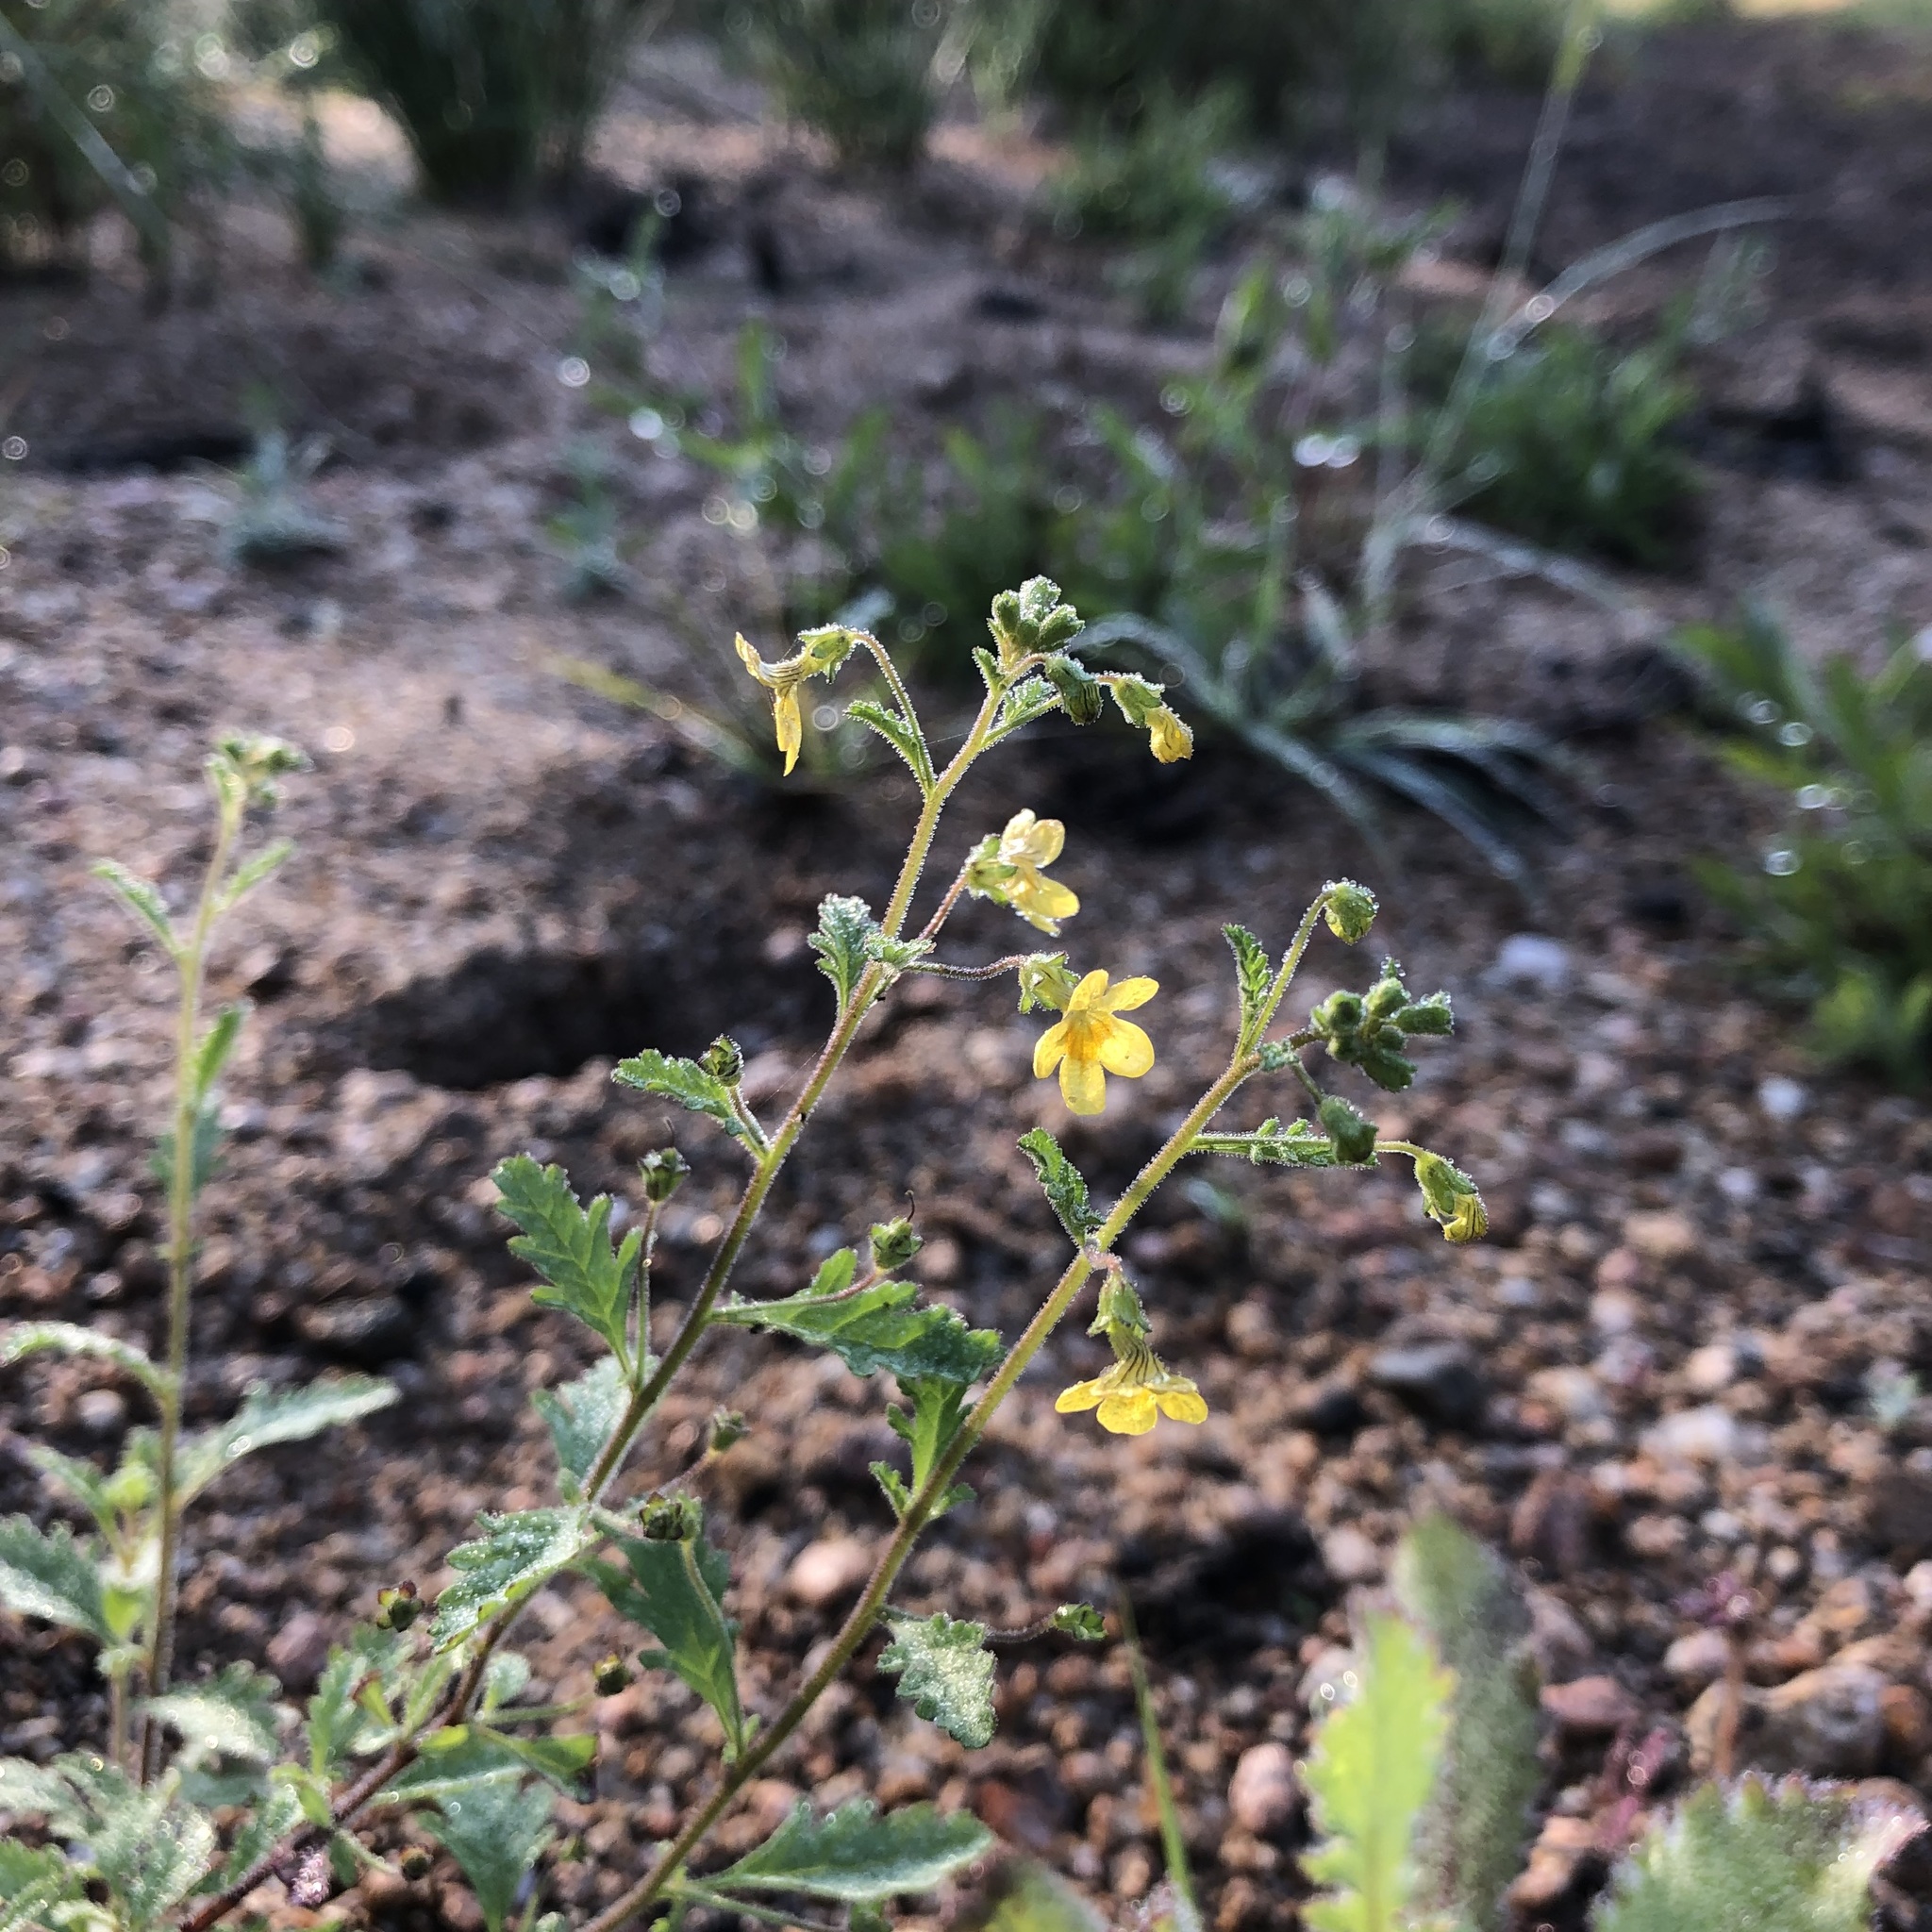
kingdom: Plantae
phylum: Tracheophyta
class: Magnoliopsida
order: Lamiales
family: Scrophulariaceae
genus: Jamesbrittenia
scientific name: Jamesbrittenia micrantha
